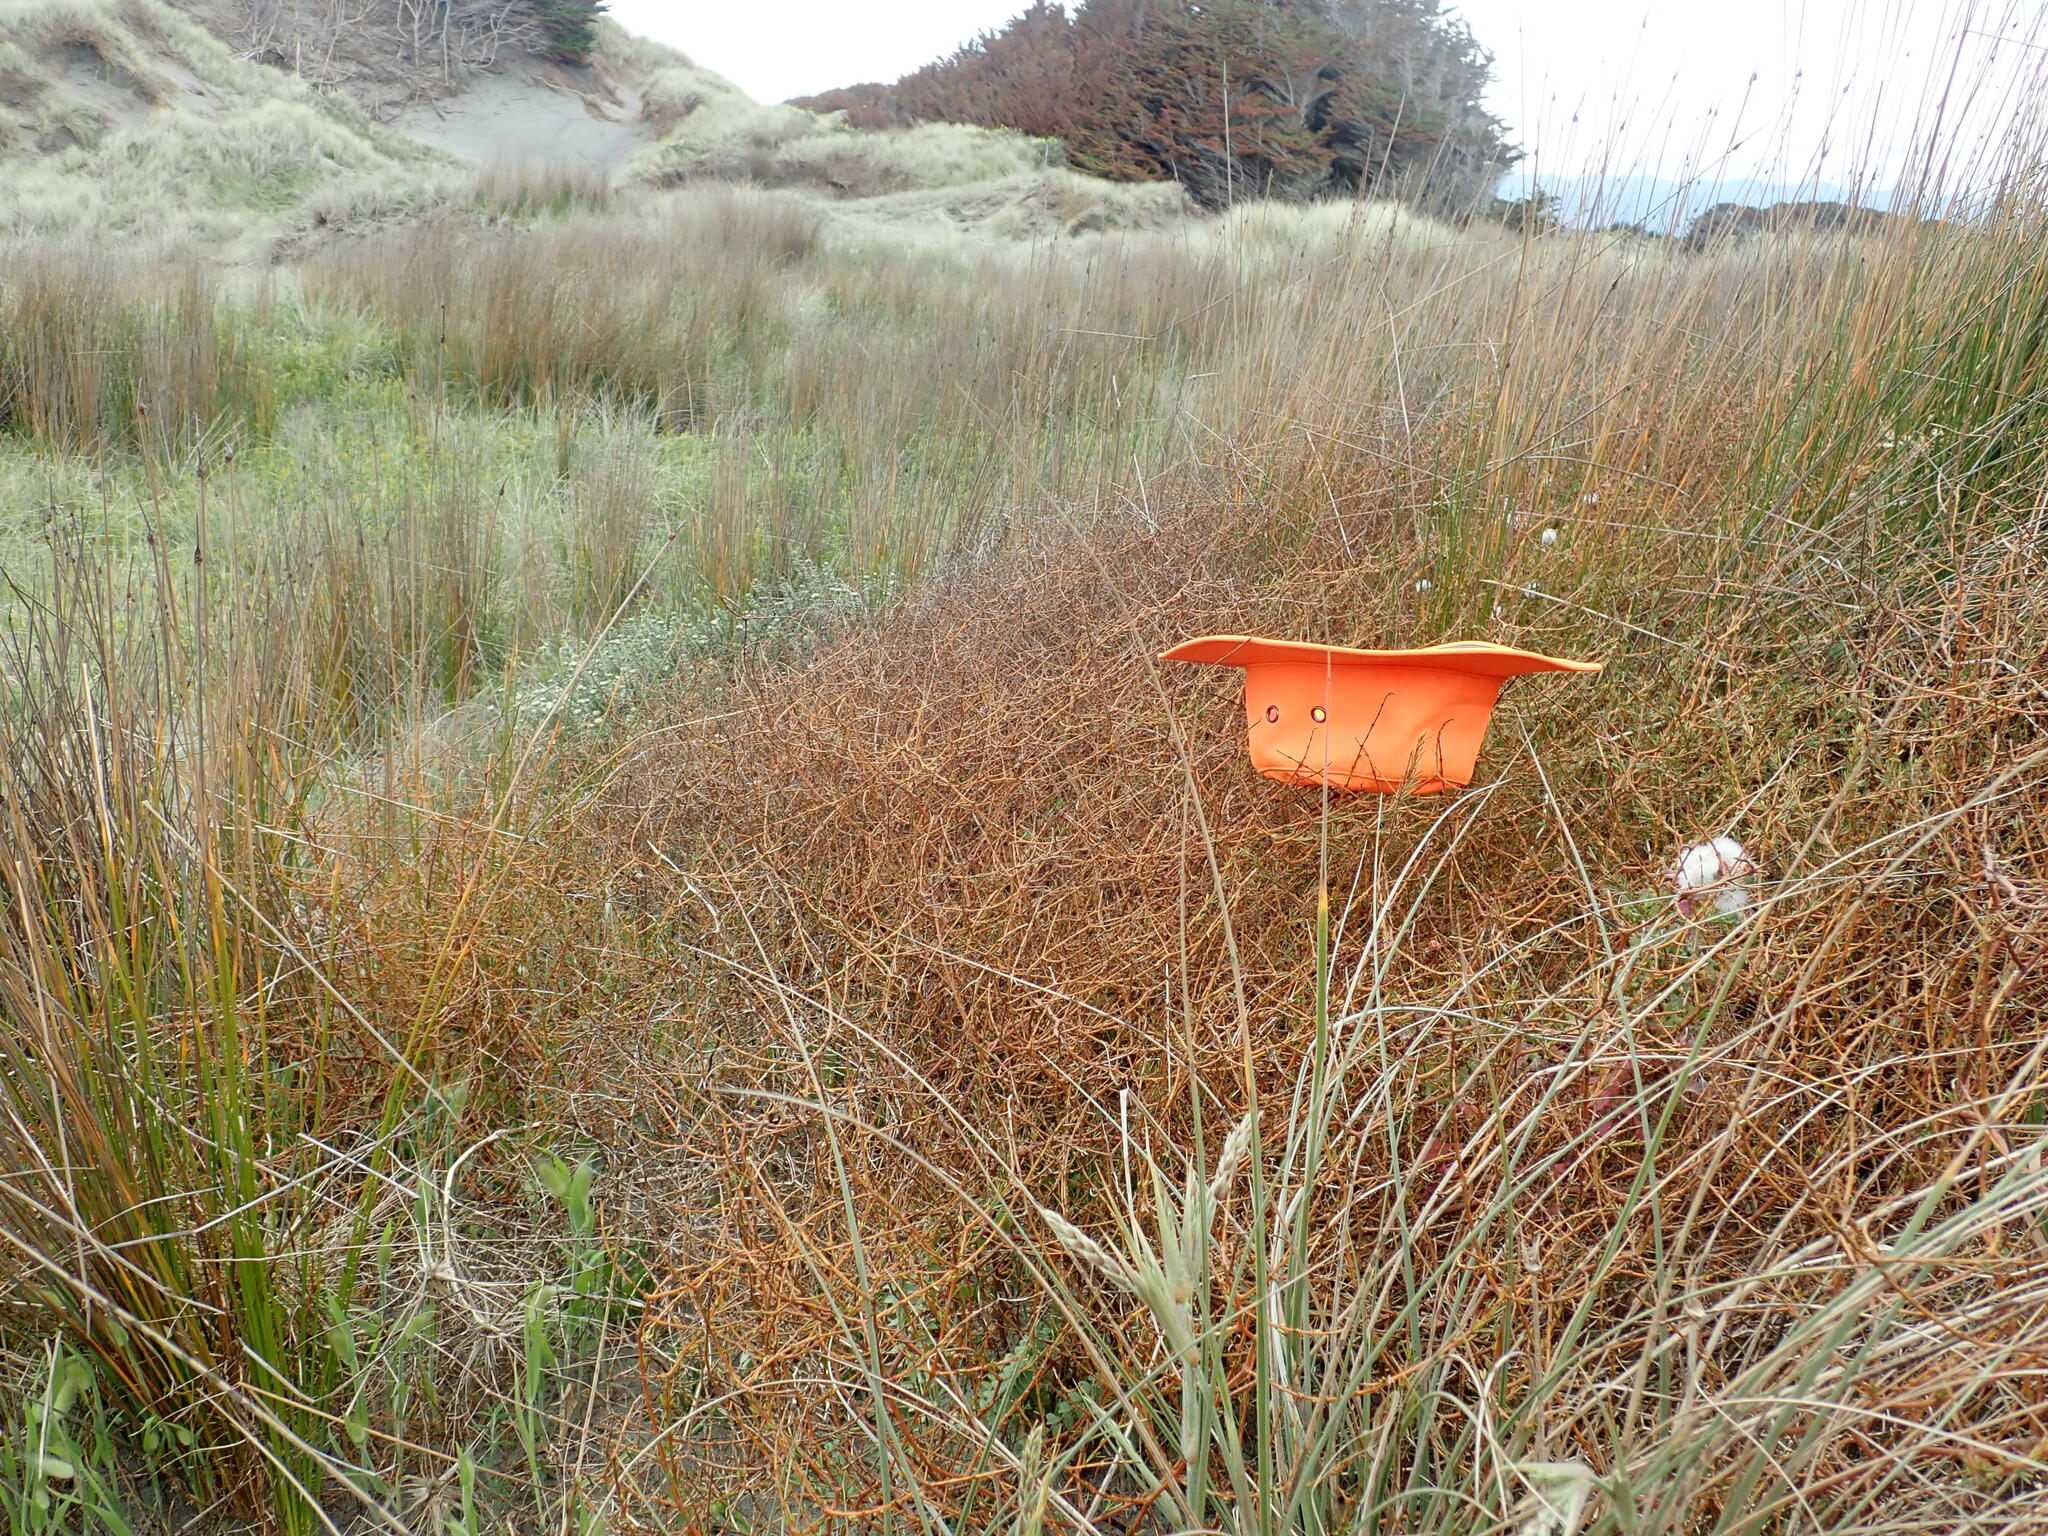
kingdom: Plantae
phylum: Tracheophyta
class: Magnoliopsida
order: Gentianales
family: Rubiaceae
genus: Coprosma
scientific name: Coprosma acerosa
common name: Sand coprosma
